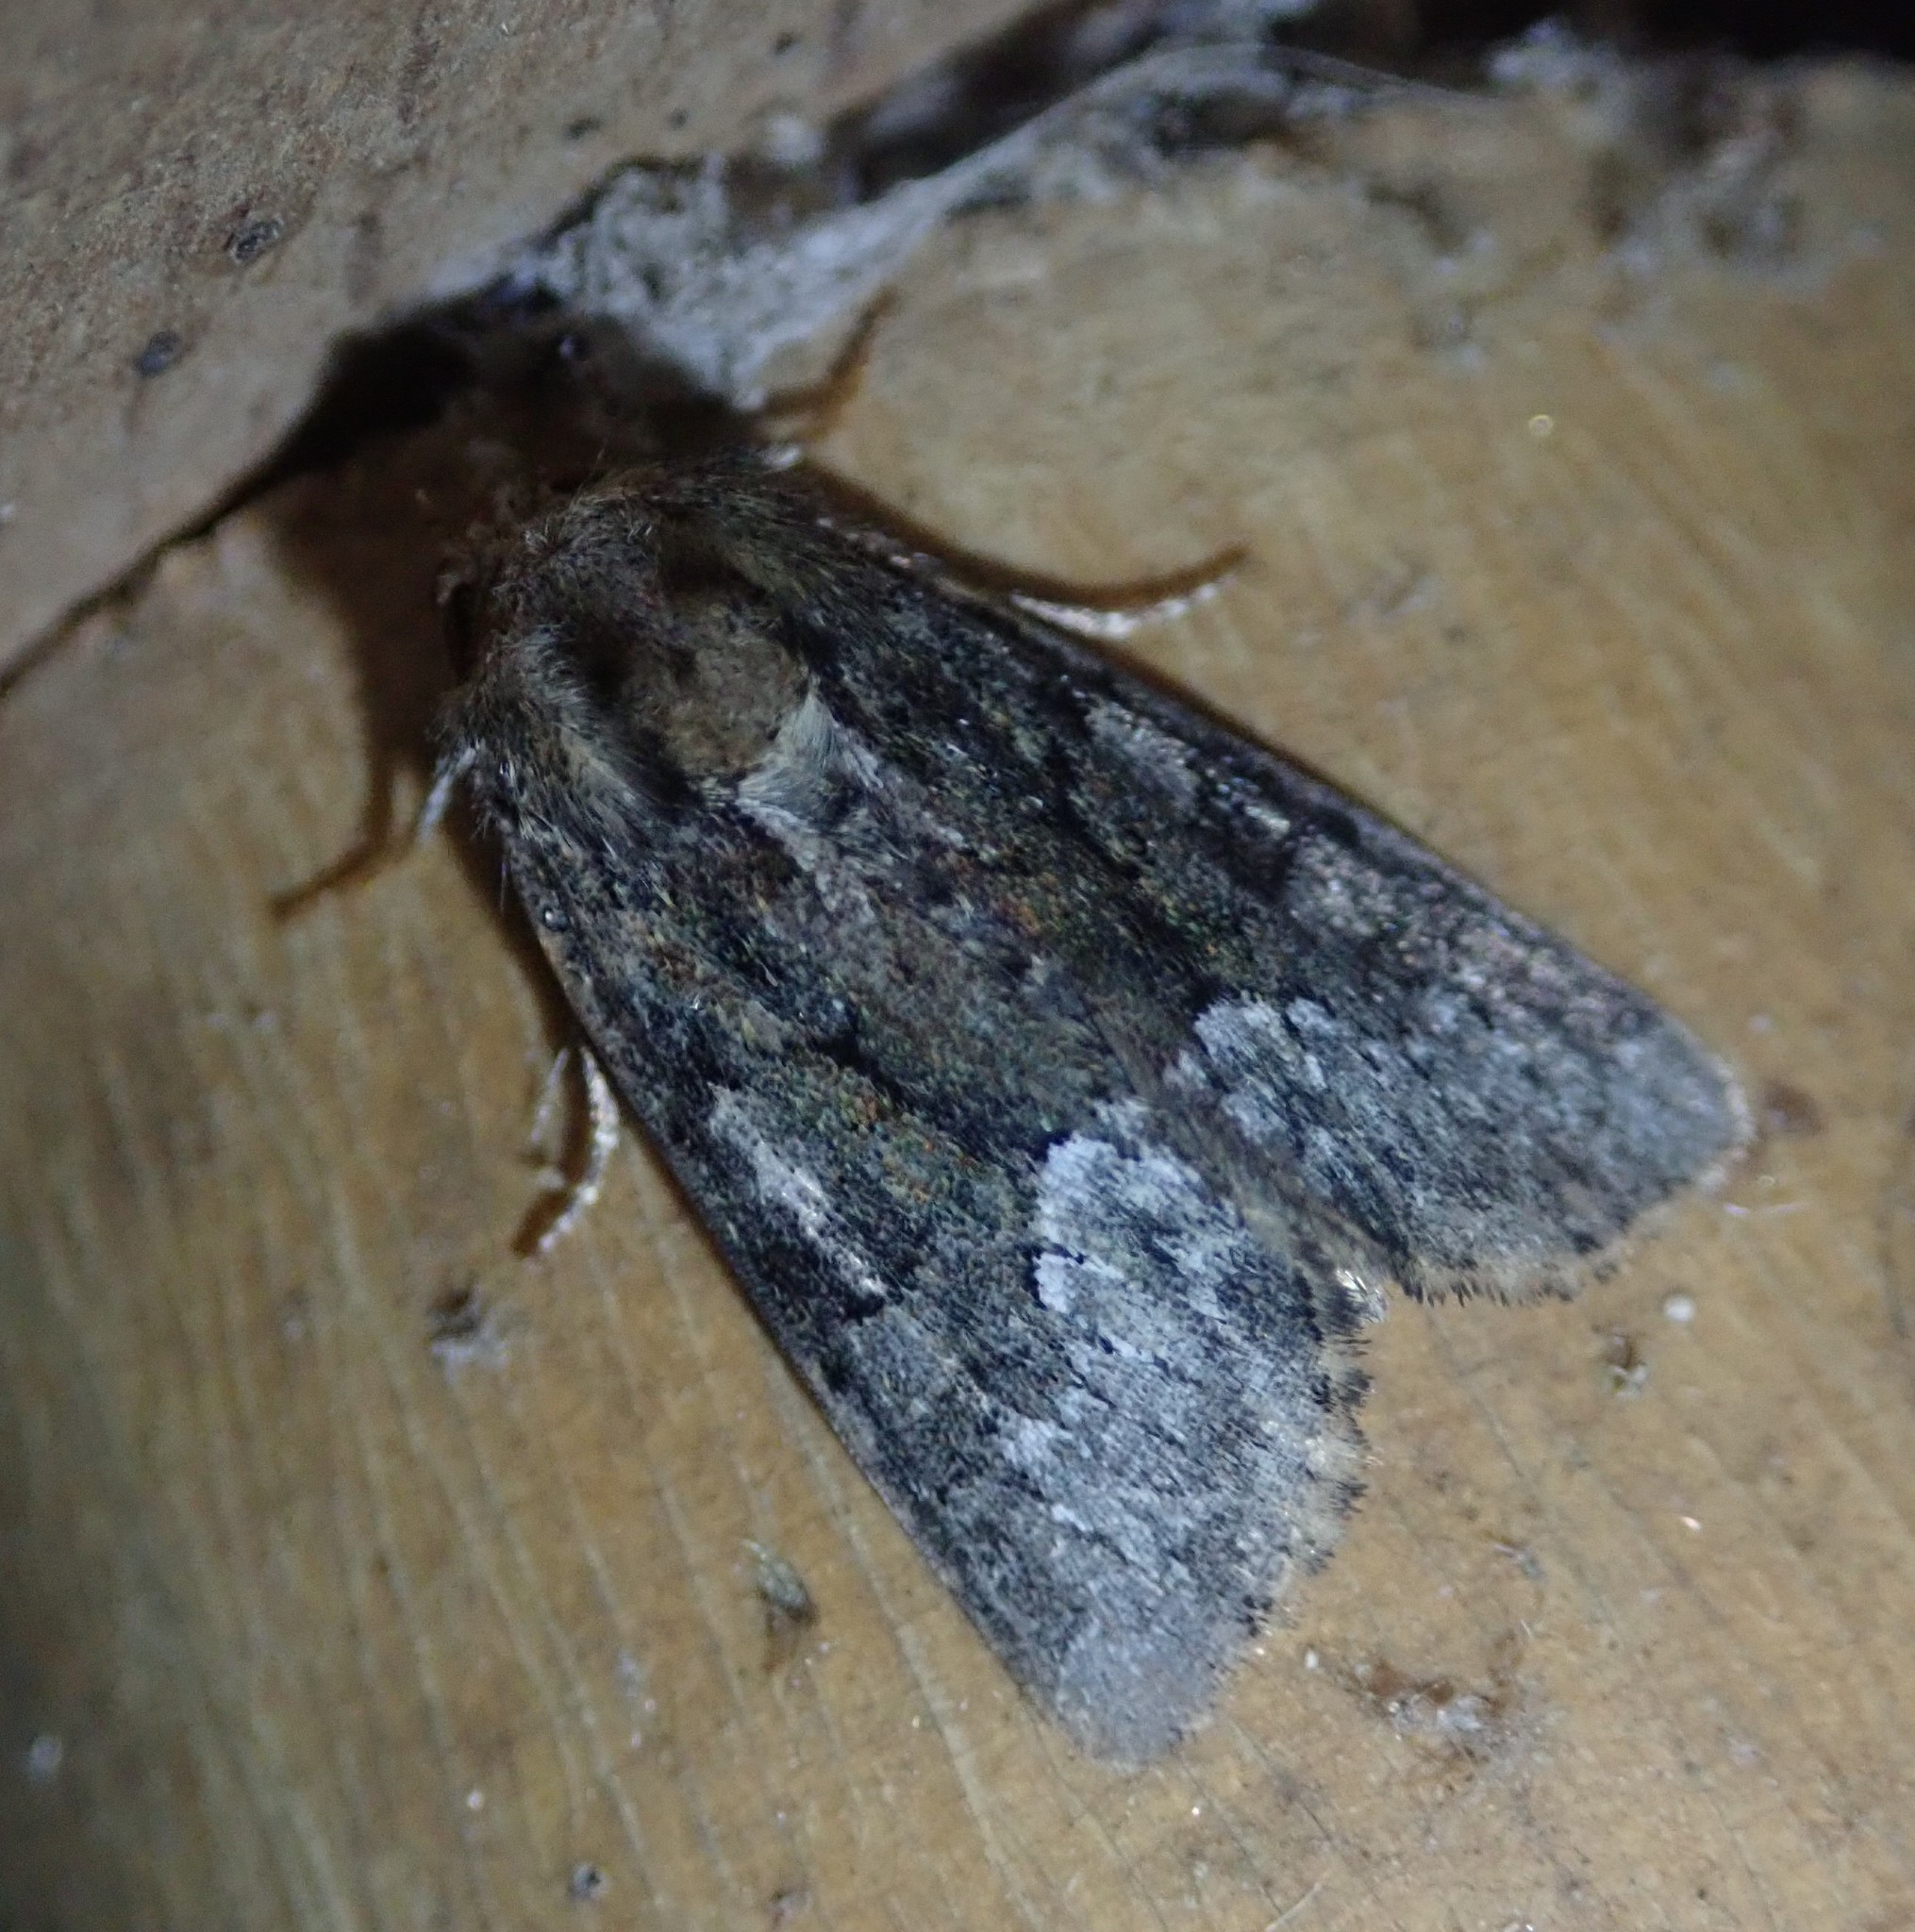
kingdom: Animalia
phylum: Arthropoda
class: Insecta
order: Lepidoptera
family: Noctuidae
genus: Oligia
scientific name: Oligia strigilis
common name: Marbled minor
